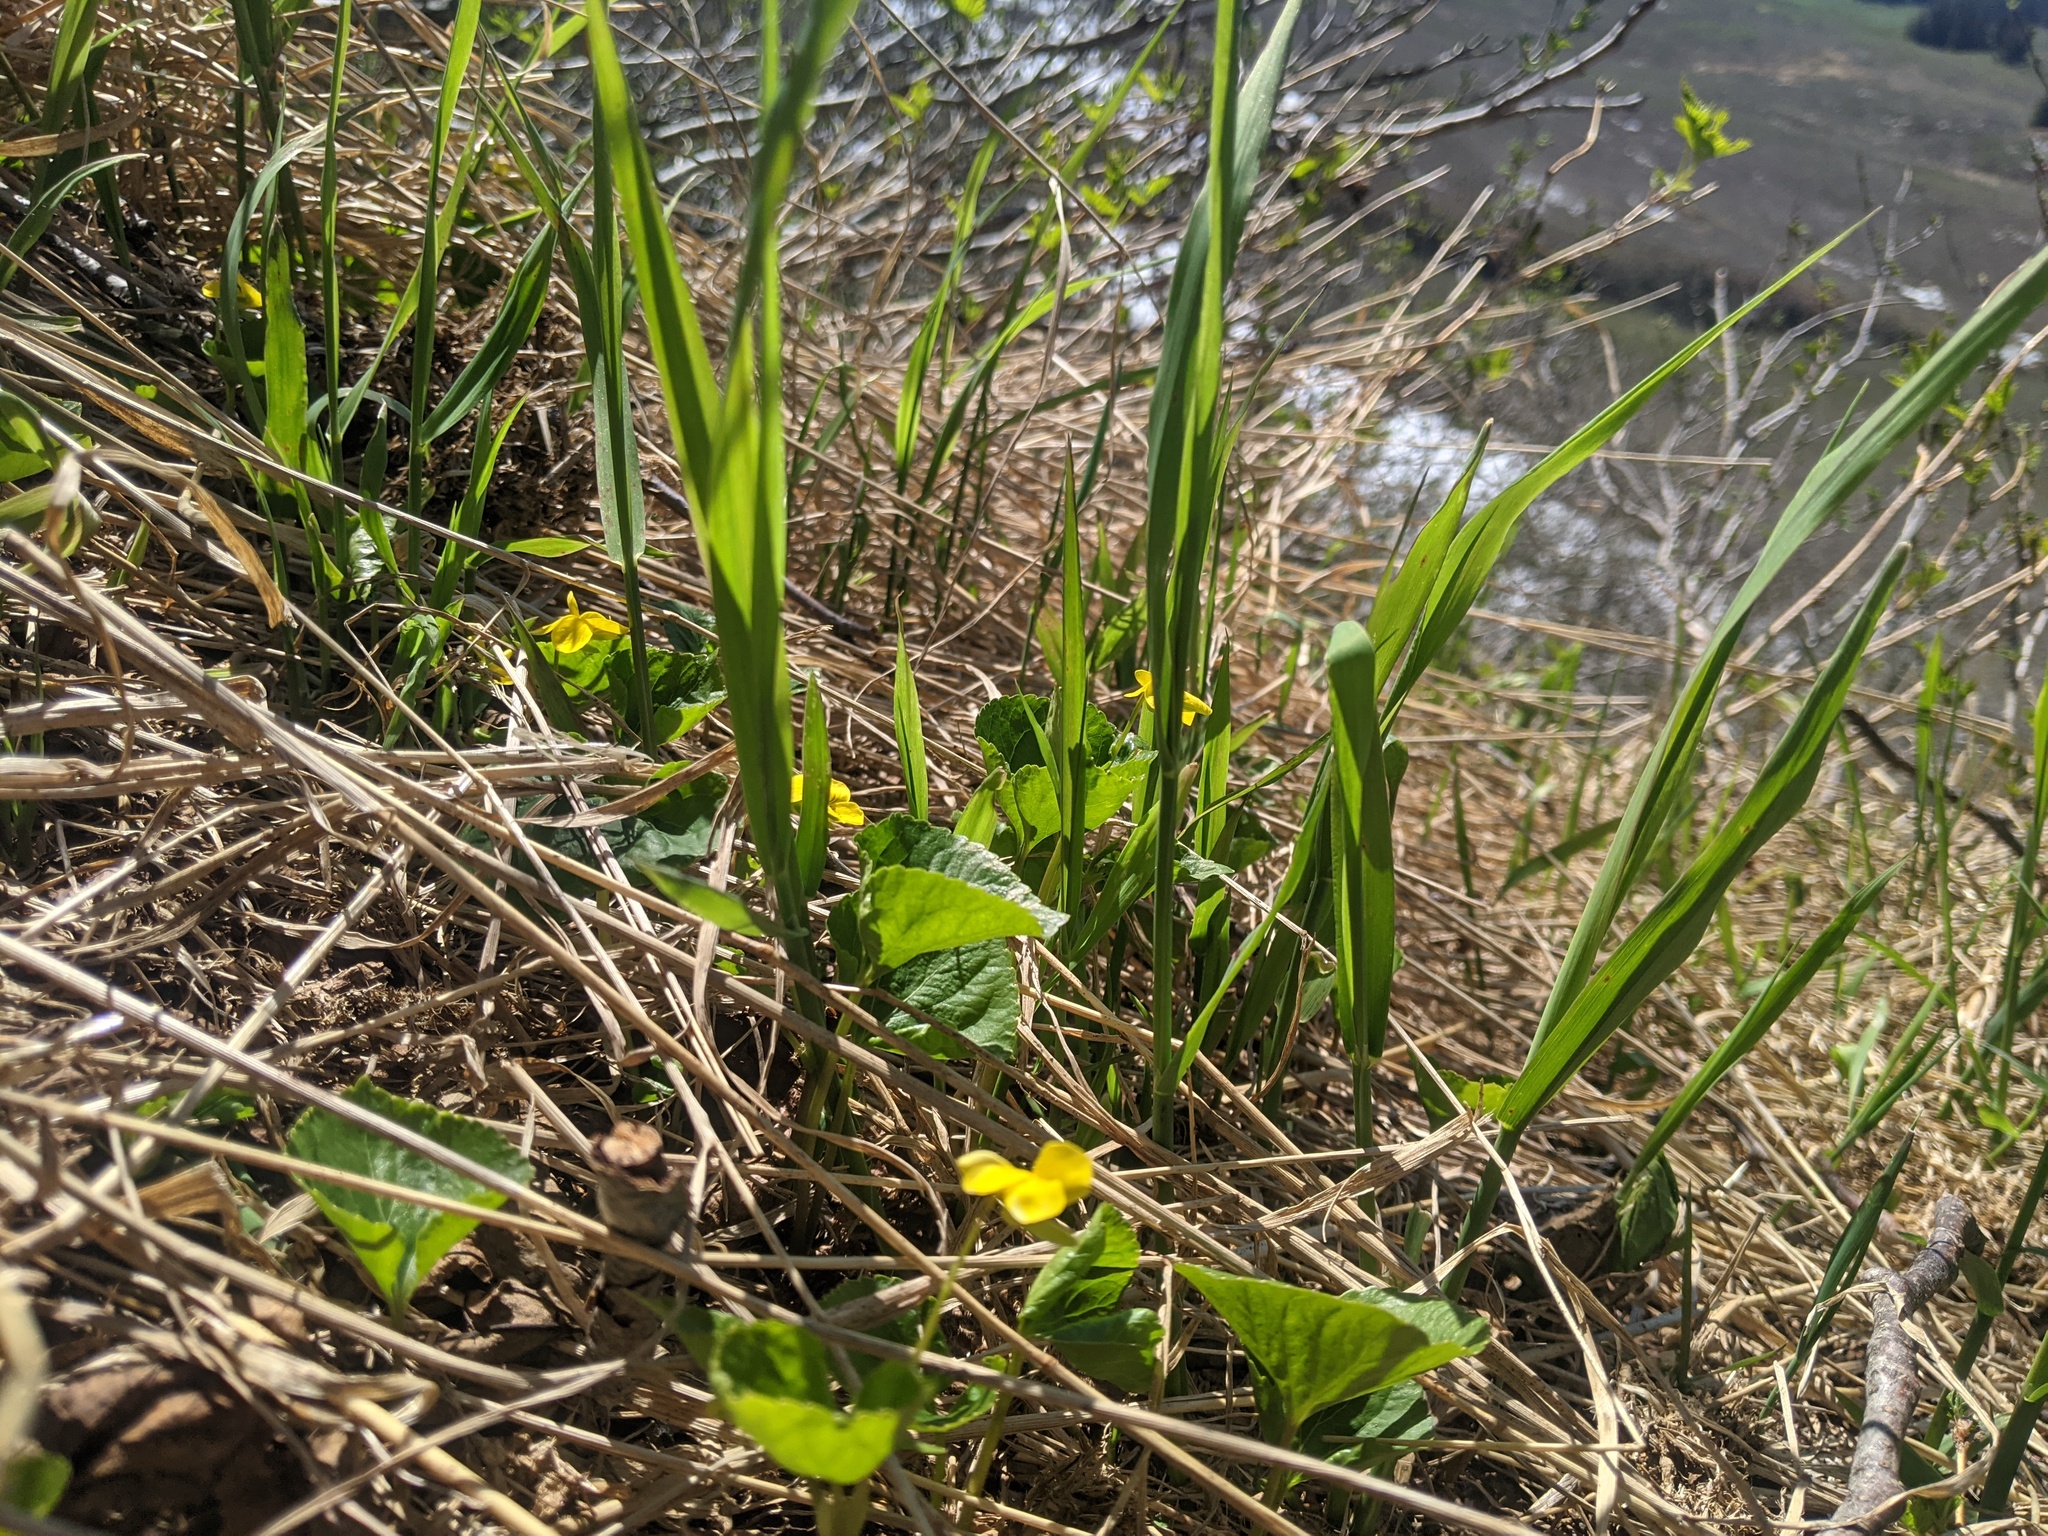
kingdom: Plantae
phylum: Tracheophyta
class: Magnoliopsida
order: Malpighiales
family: Violaceae
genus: Viola
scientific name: Viola glabella
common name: Stream violet
